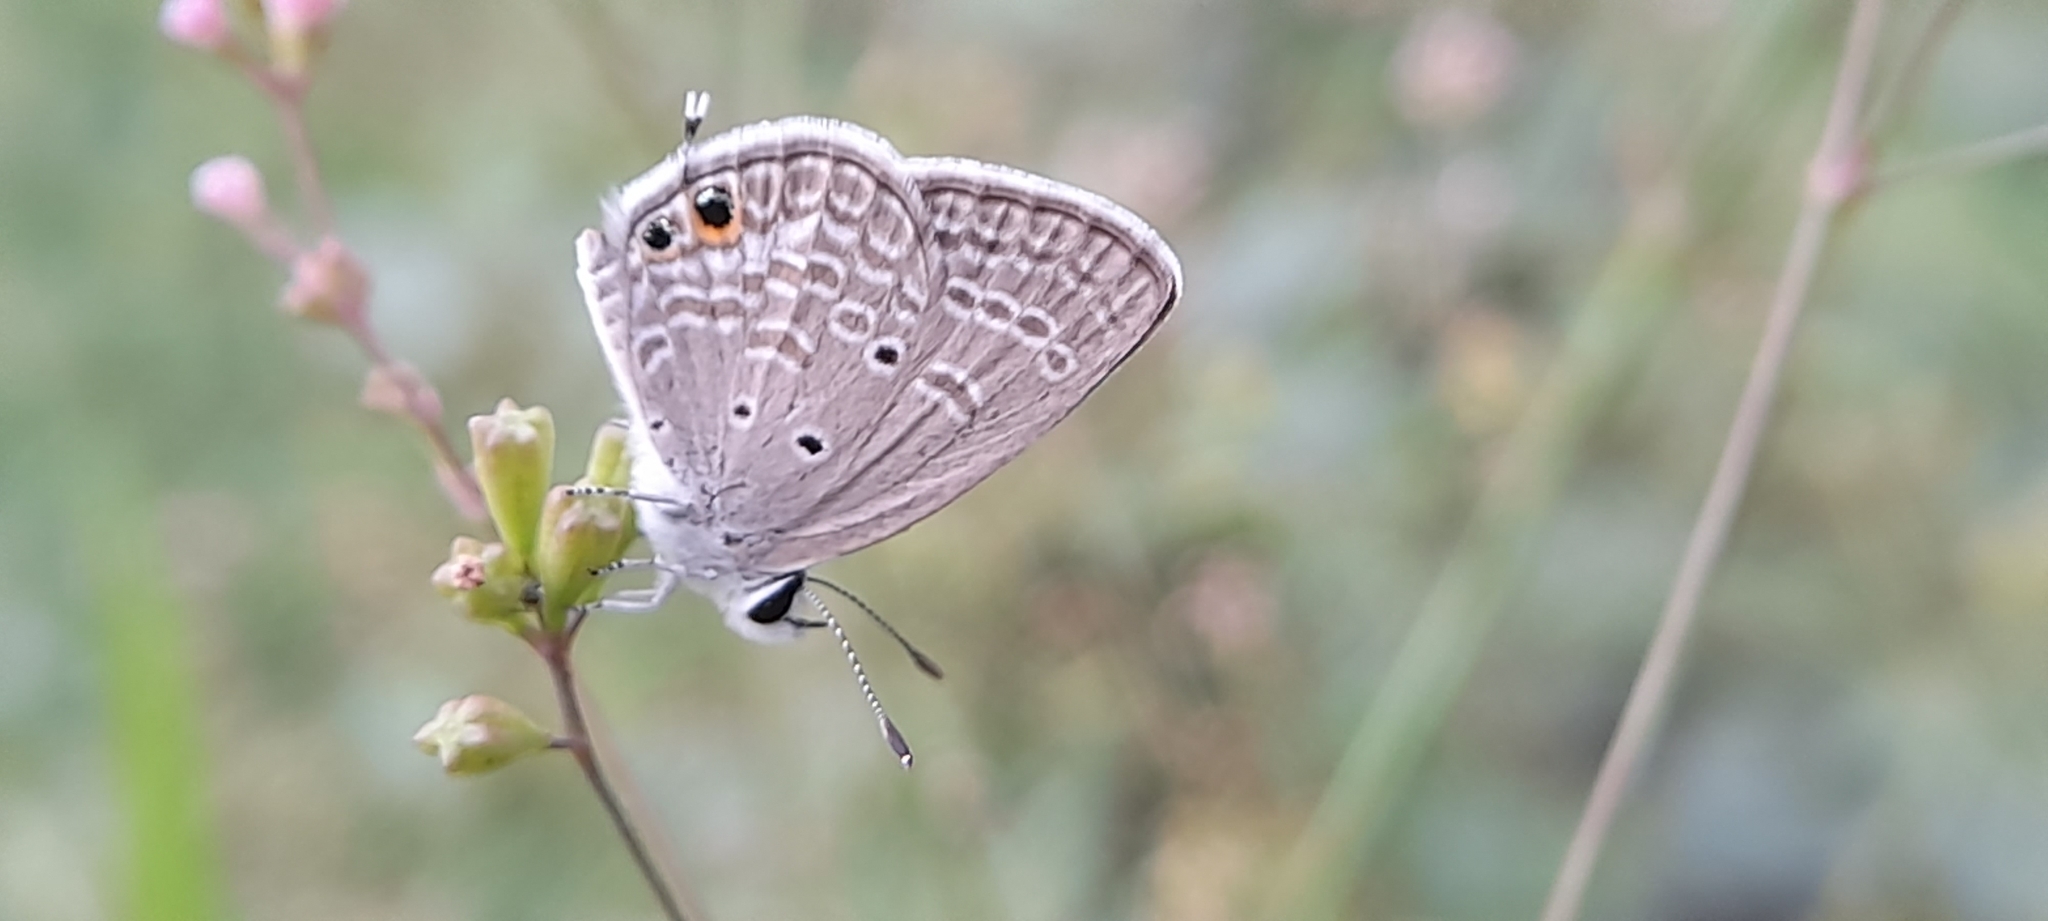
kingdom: Animalia
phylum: Arthropoda
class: Insecta
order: Lepidoptera
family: Lycaenidae
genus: Chilades
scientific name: Chilades parrhasius
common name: Small cupid
